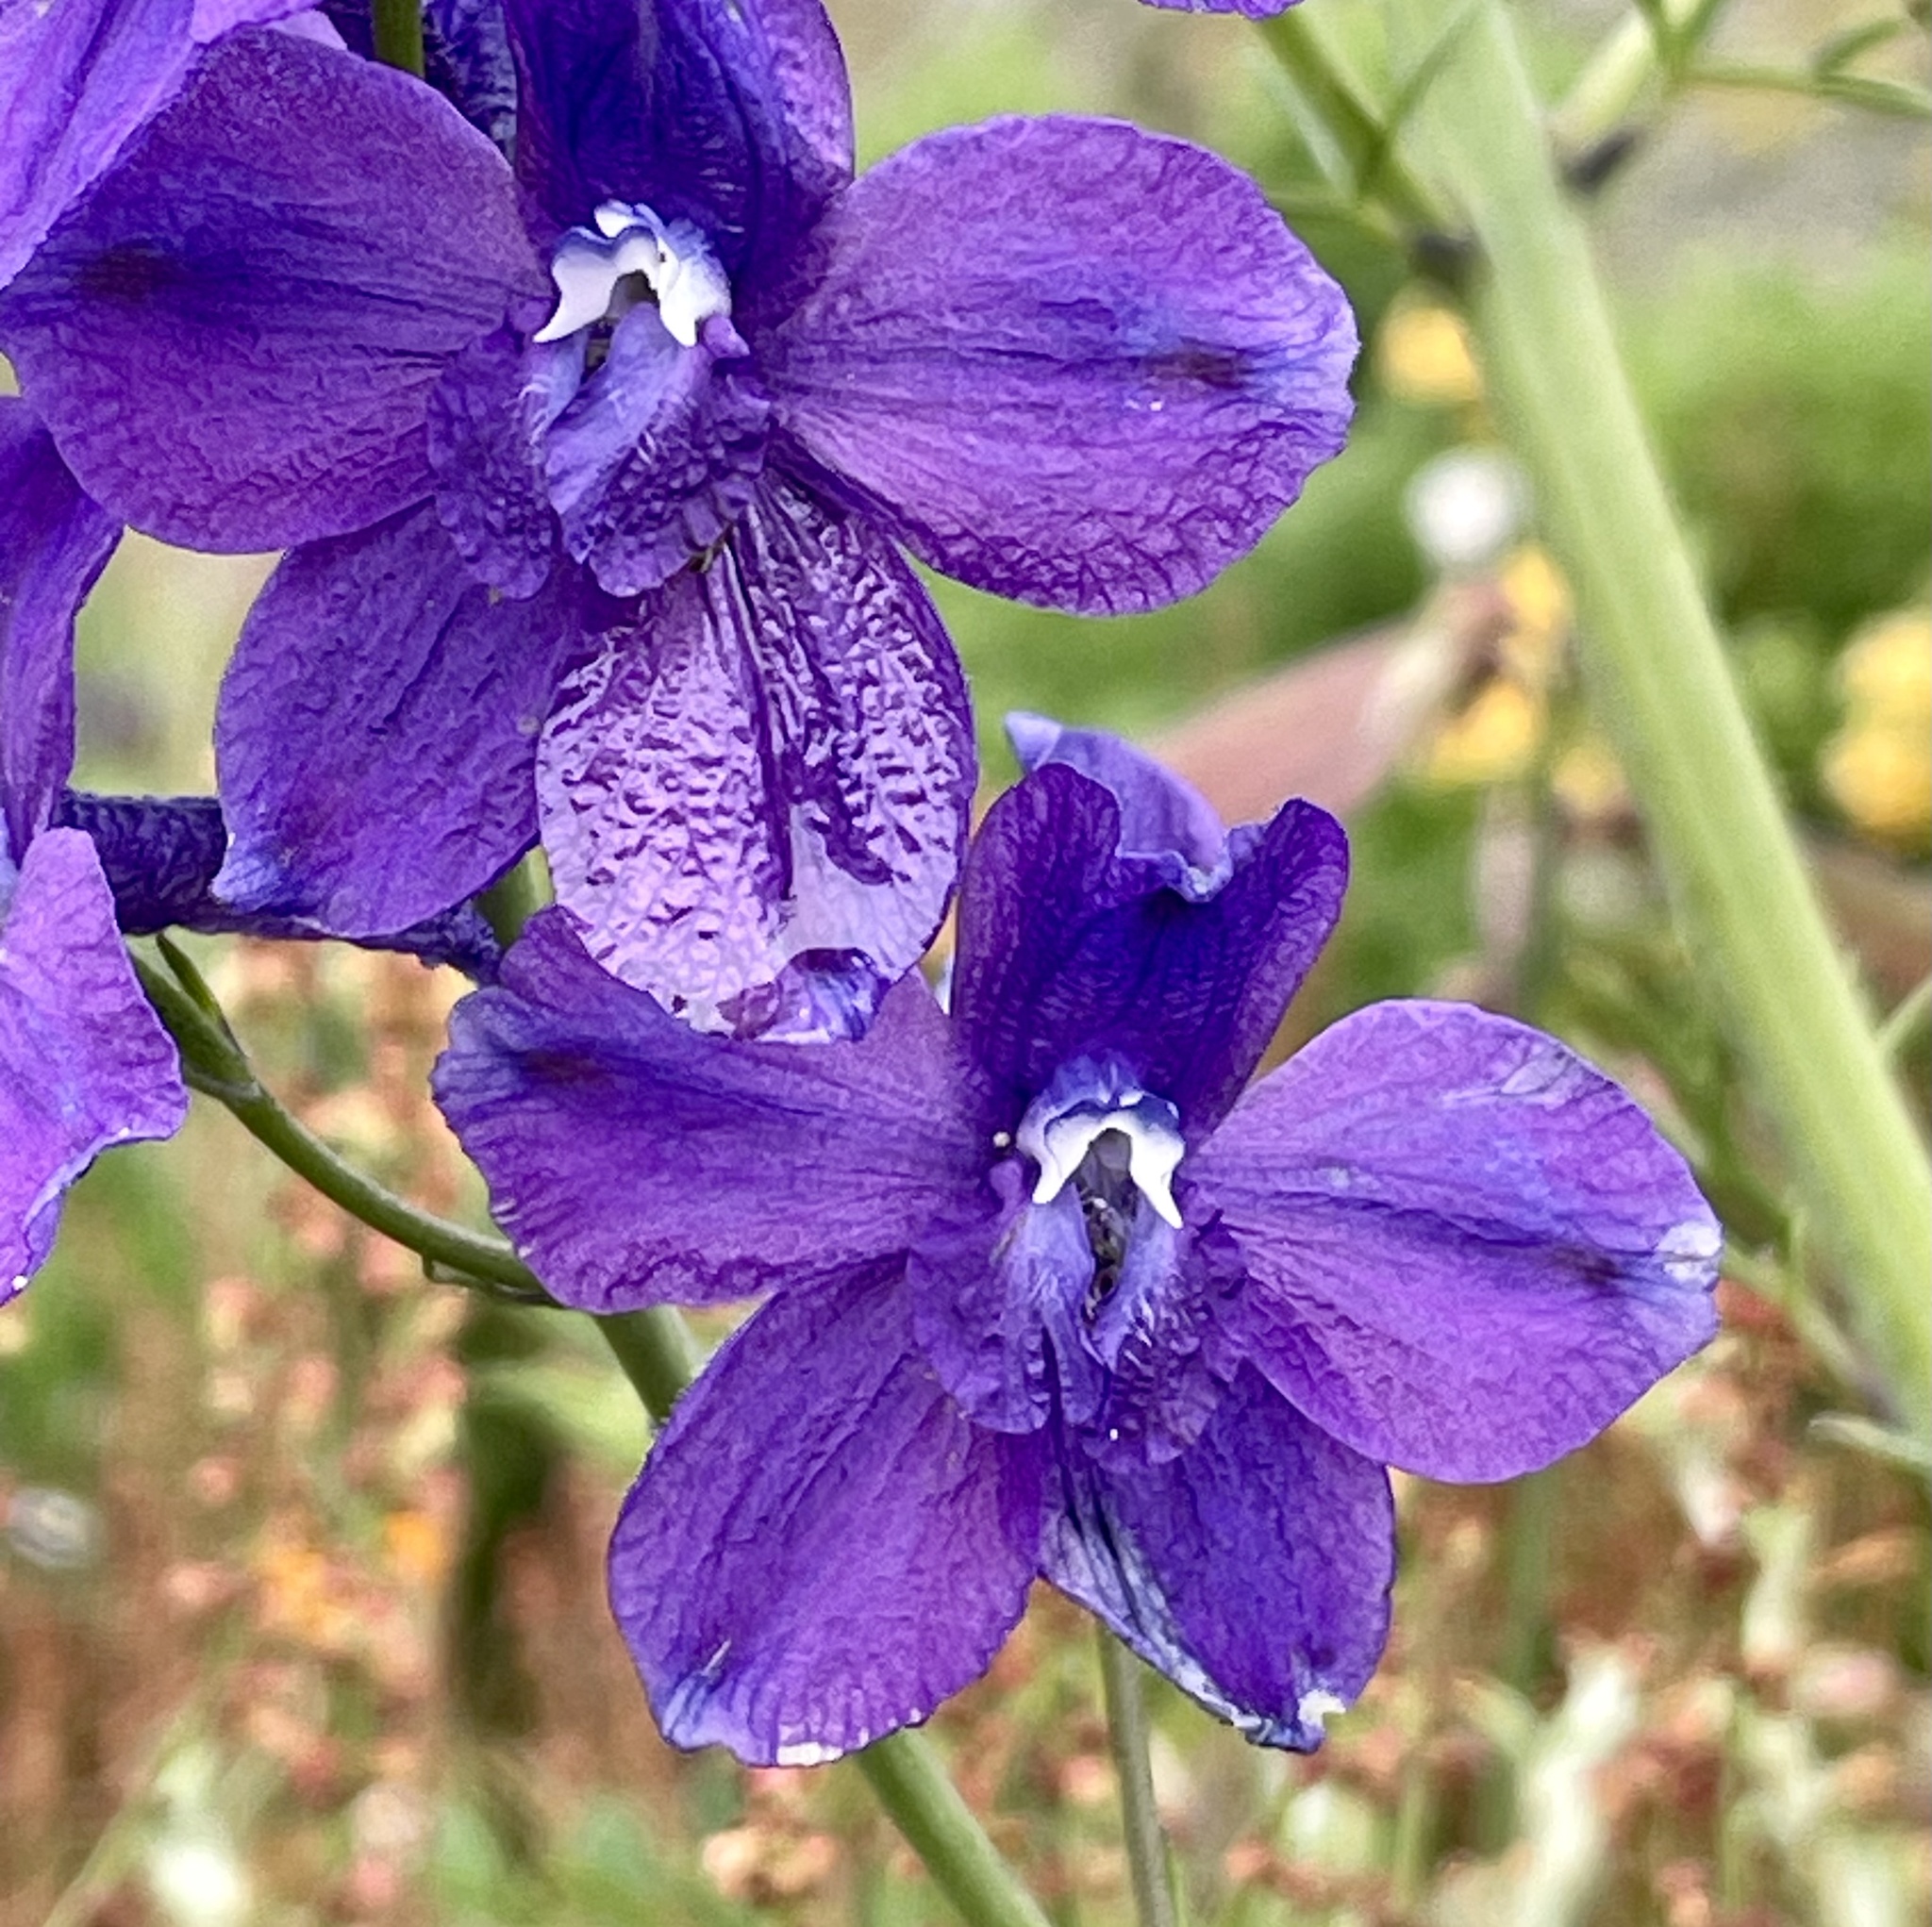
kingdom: Plantae
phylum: Tracheophyta
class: Magnoliopsida
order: Ranunculales
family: Ranunculaceae
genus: Delphinium
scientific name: Delphinium hutchinsoniae
